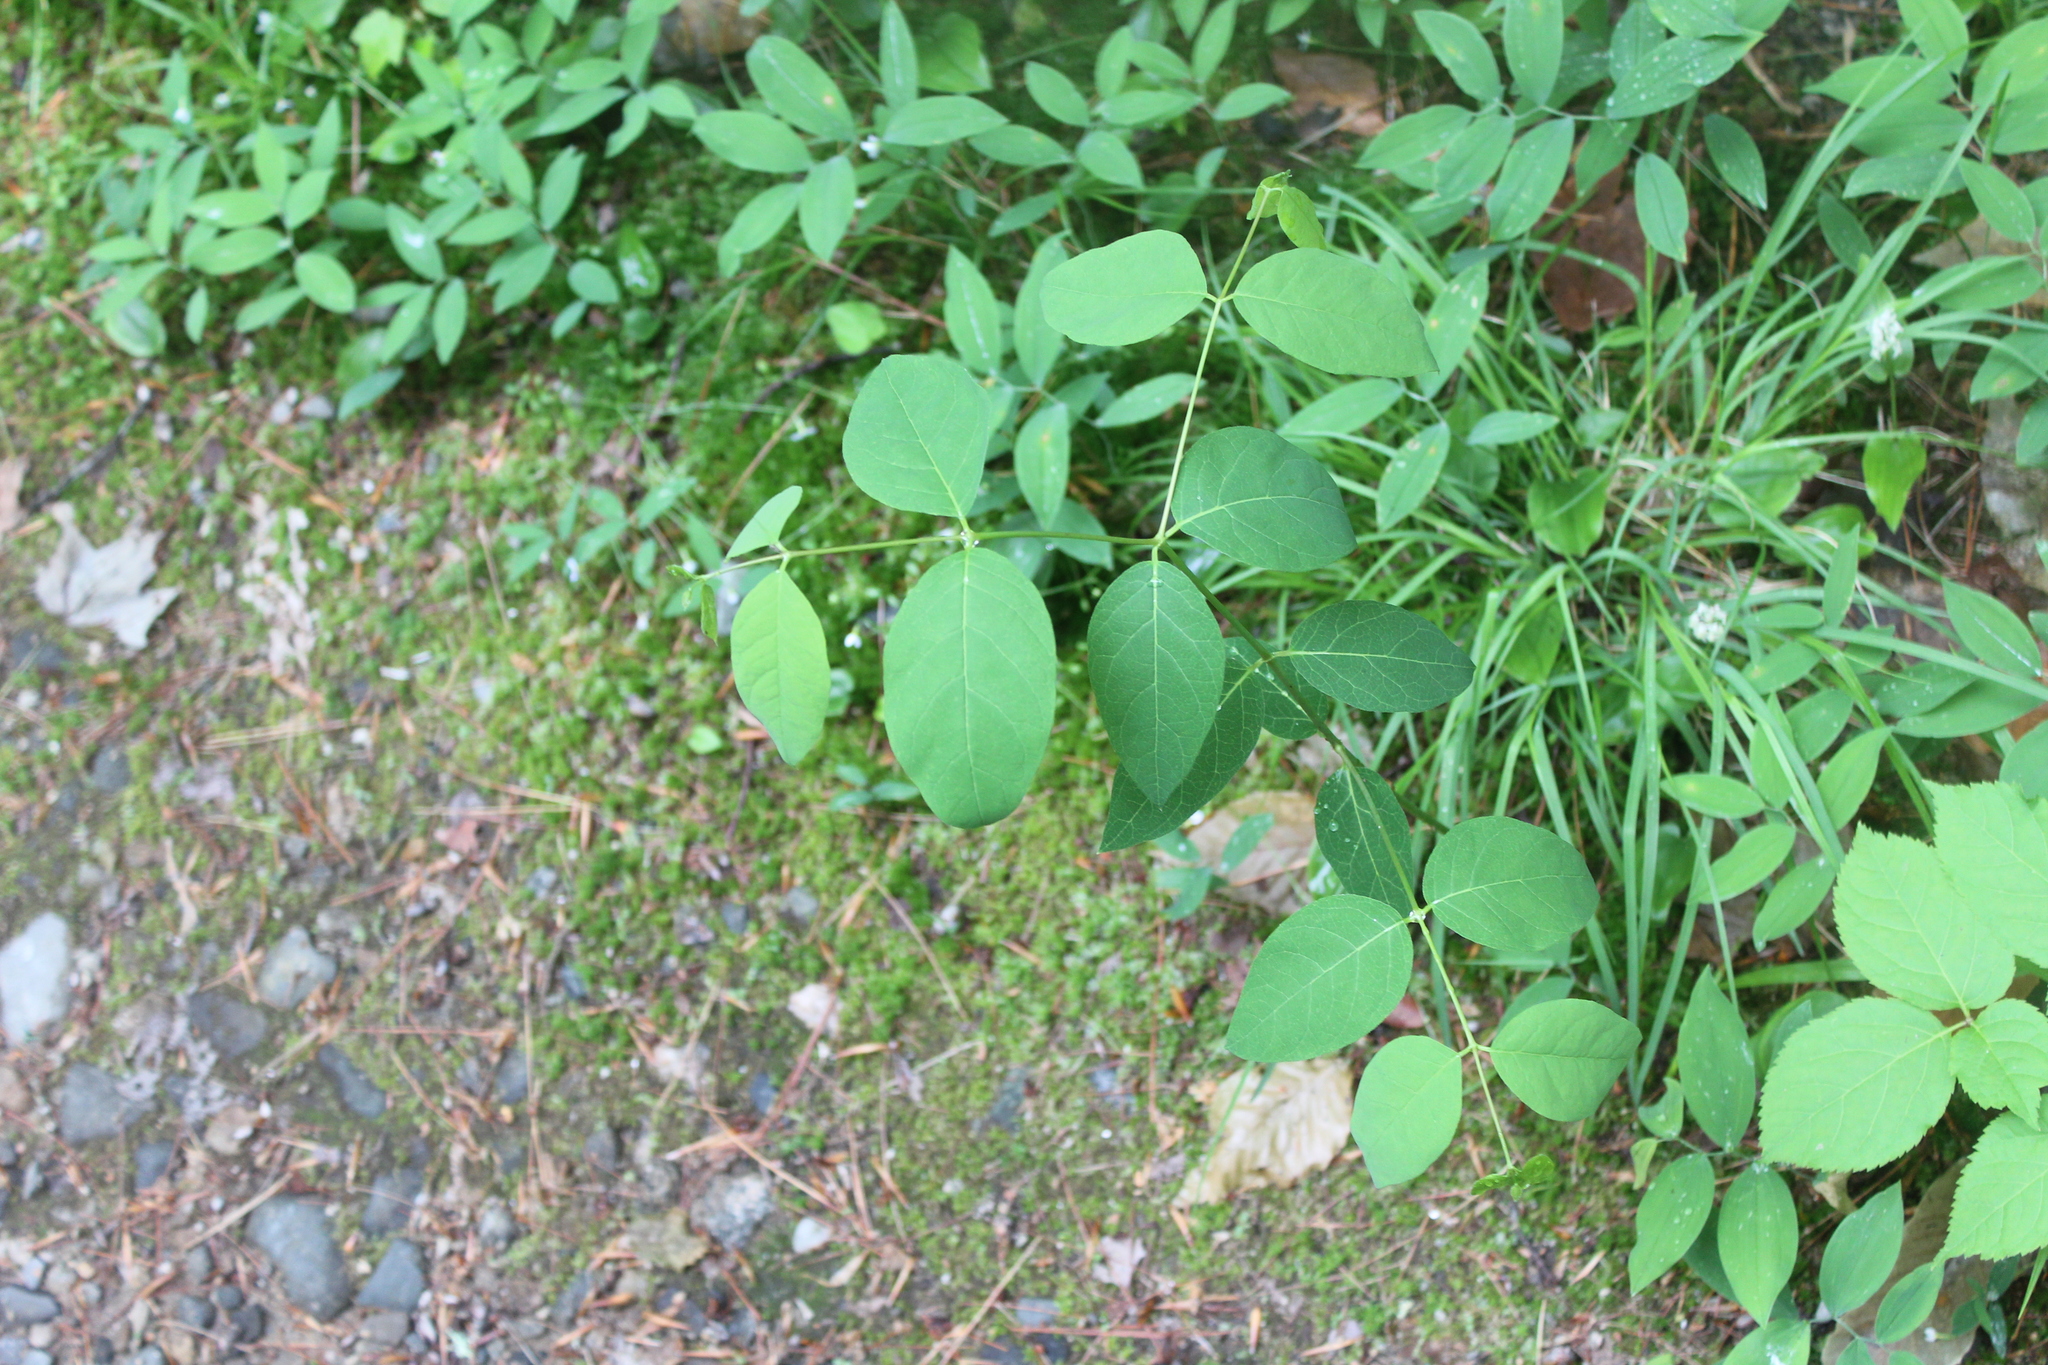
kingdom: Plantae
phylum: Tracheophyta
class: Magnoliopsida
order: Gentianales
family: Apocynaceae
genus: Apocynum
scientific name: Apocynum androsaemifolium
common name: Spreading dogbane
